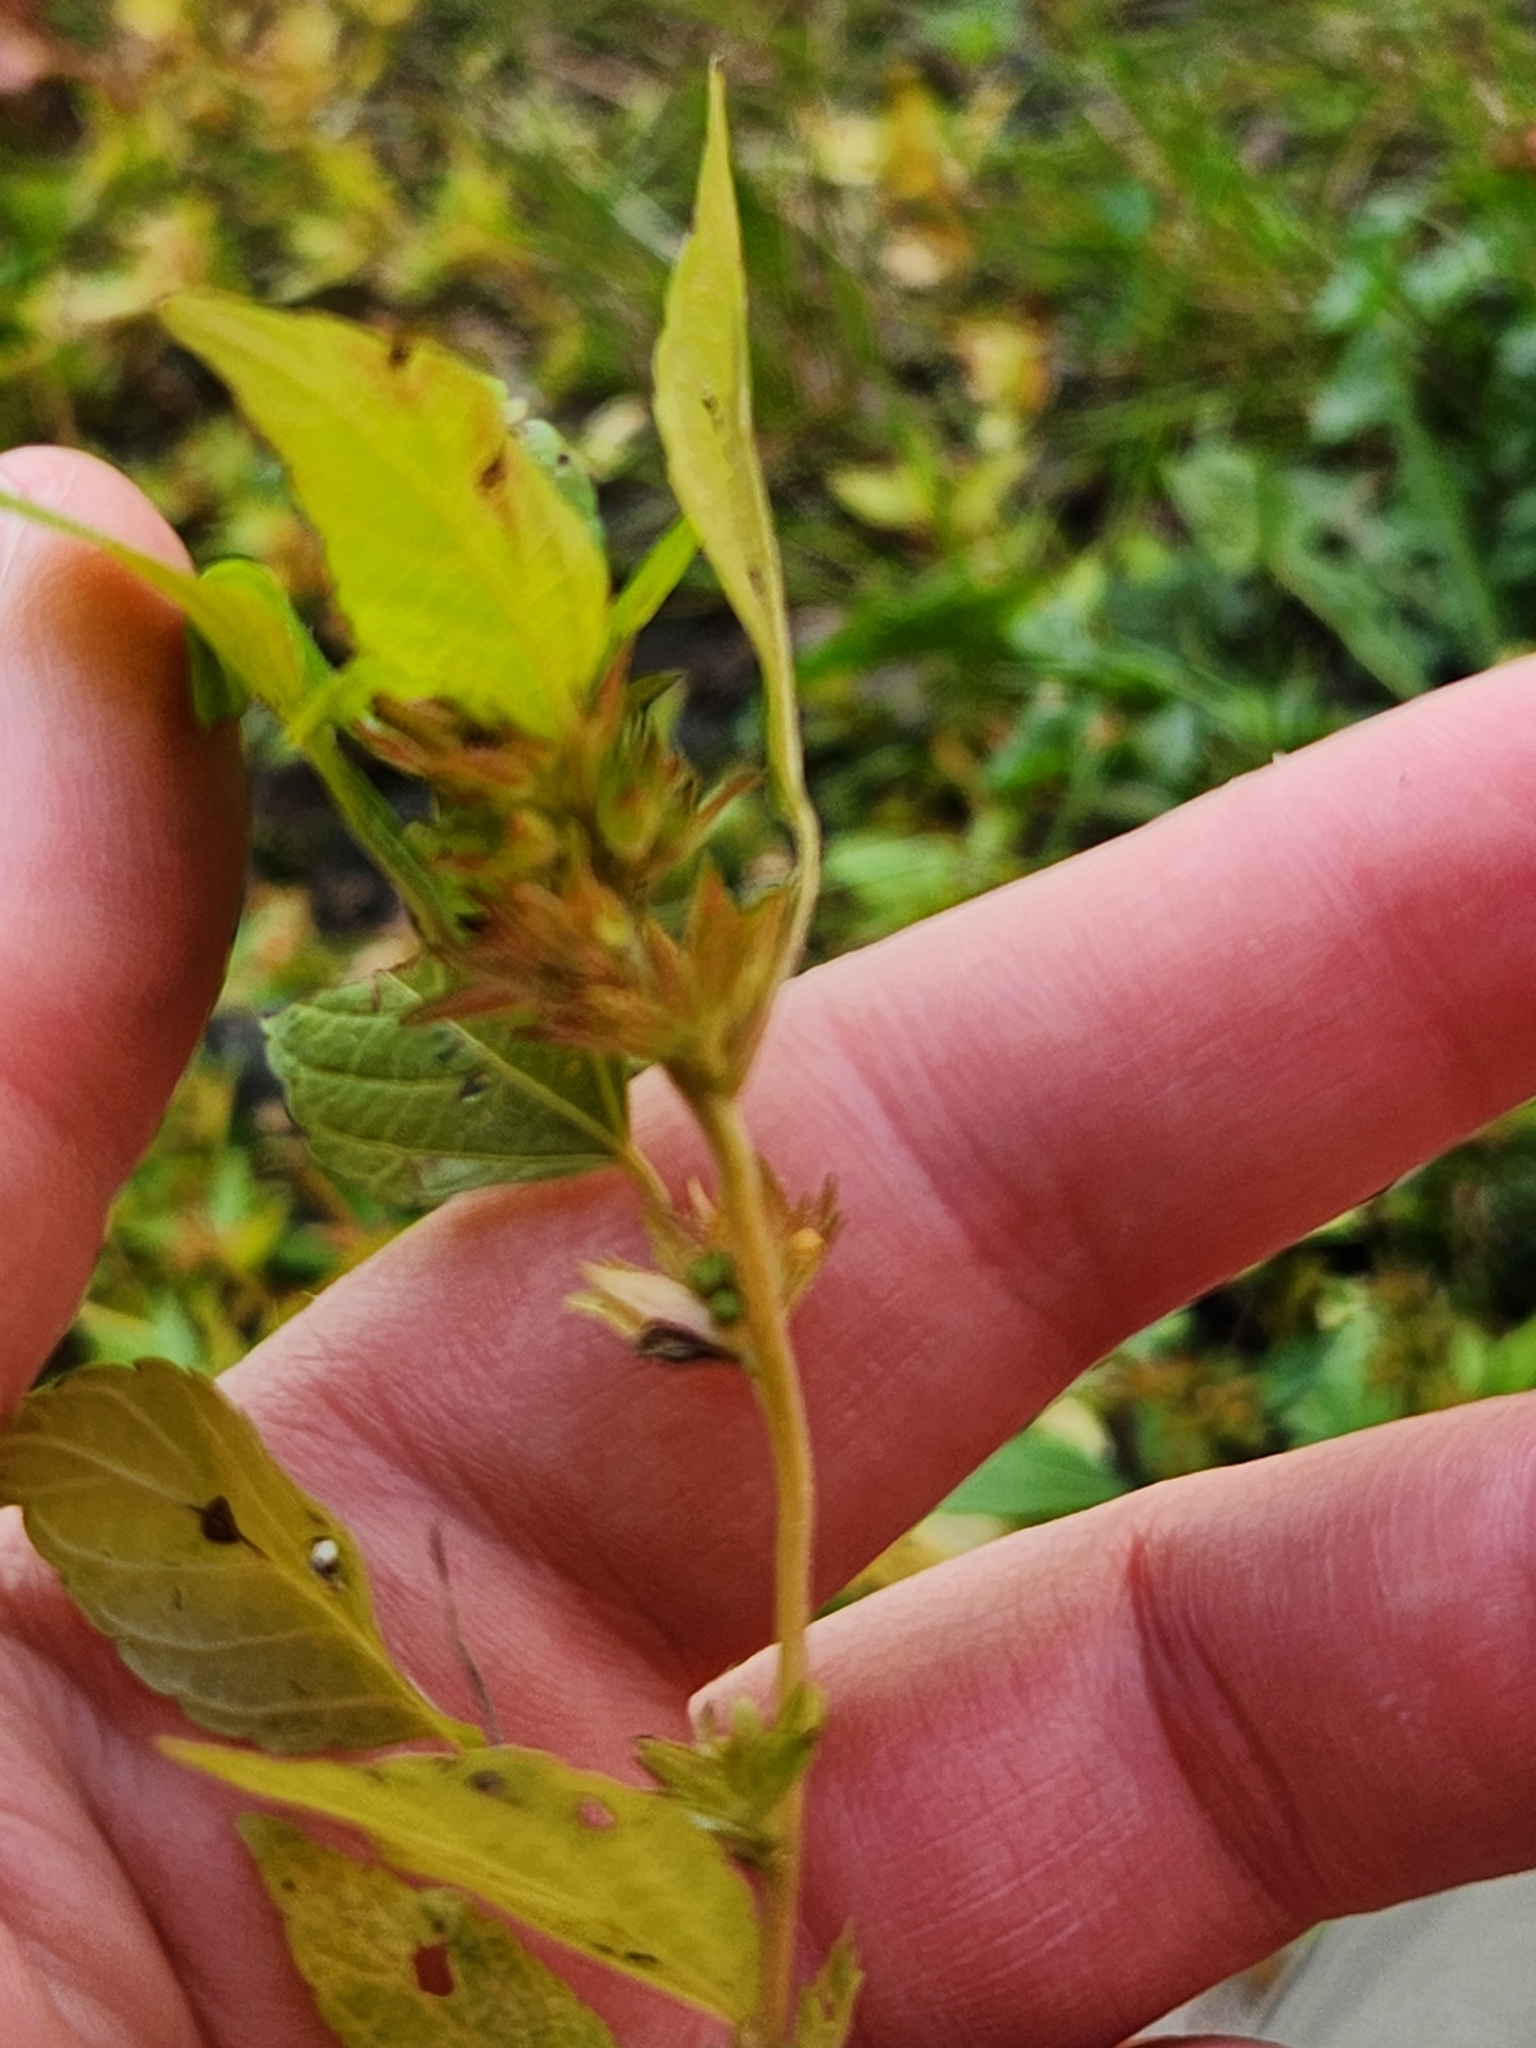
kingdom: Plantae
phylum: Tracheophyta
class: Magnoliopsida
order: Malpighiales
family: Euphorbiaceae
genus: Acalypha
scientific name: Acalypha rhomboidea
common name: Rhombic copperleaf
